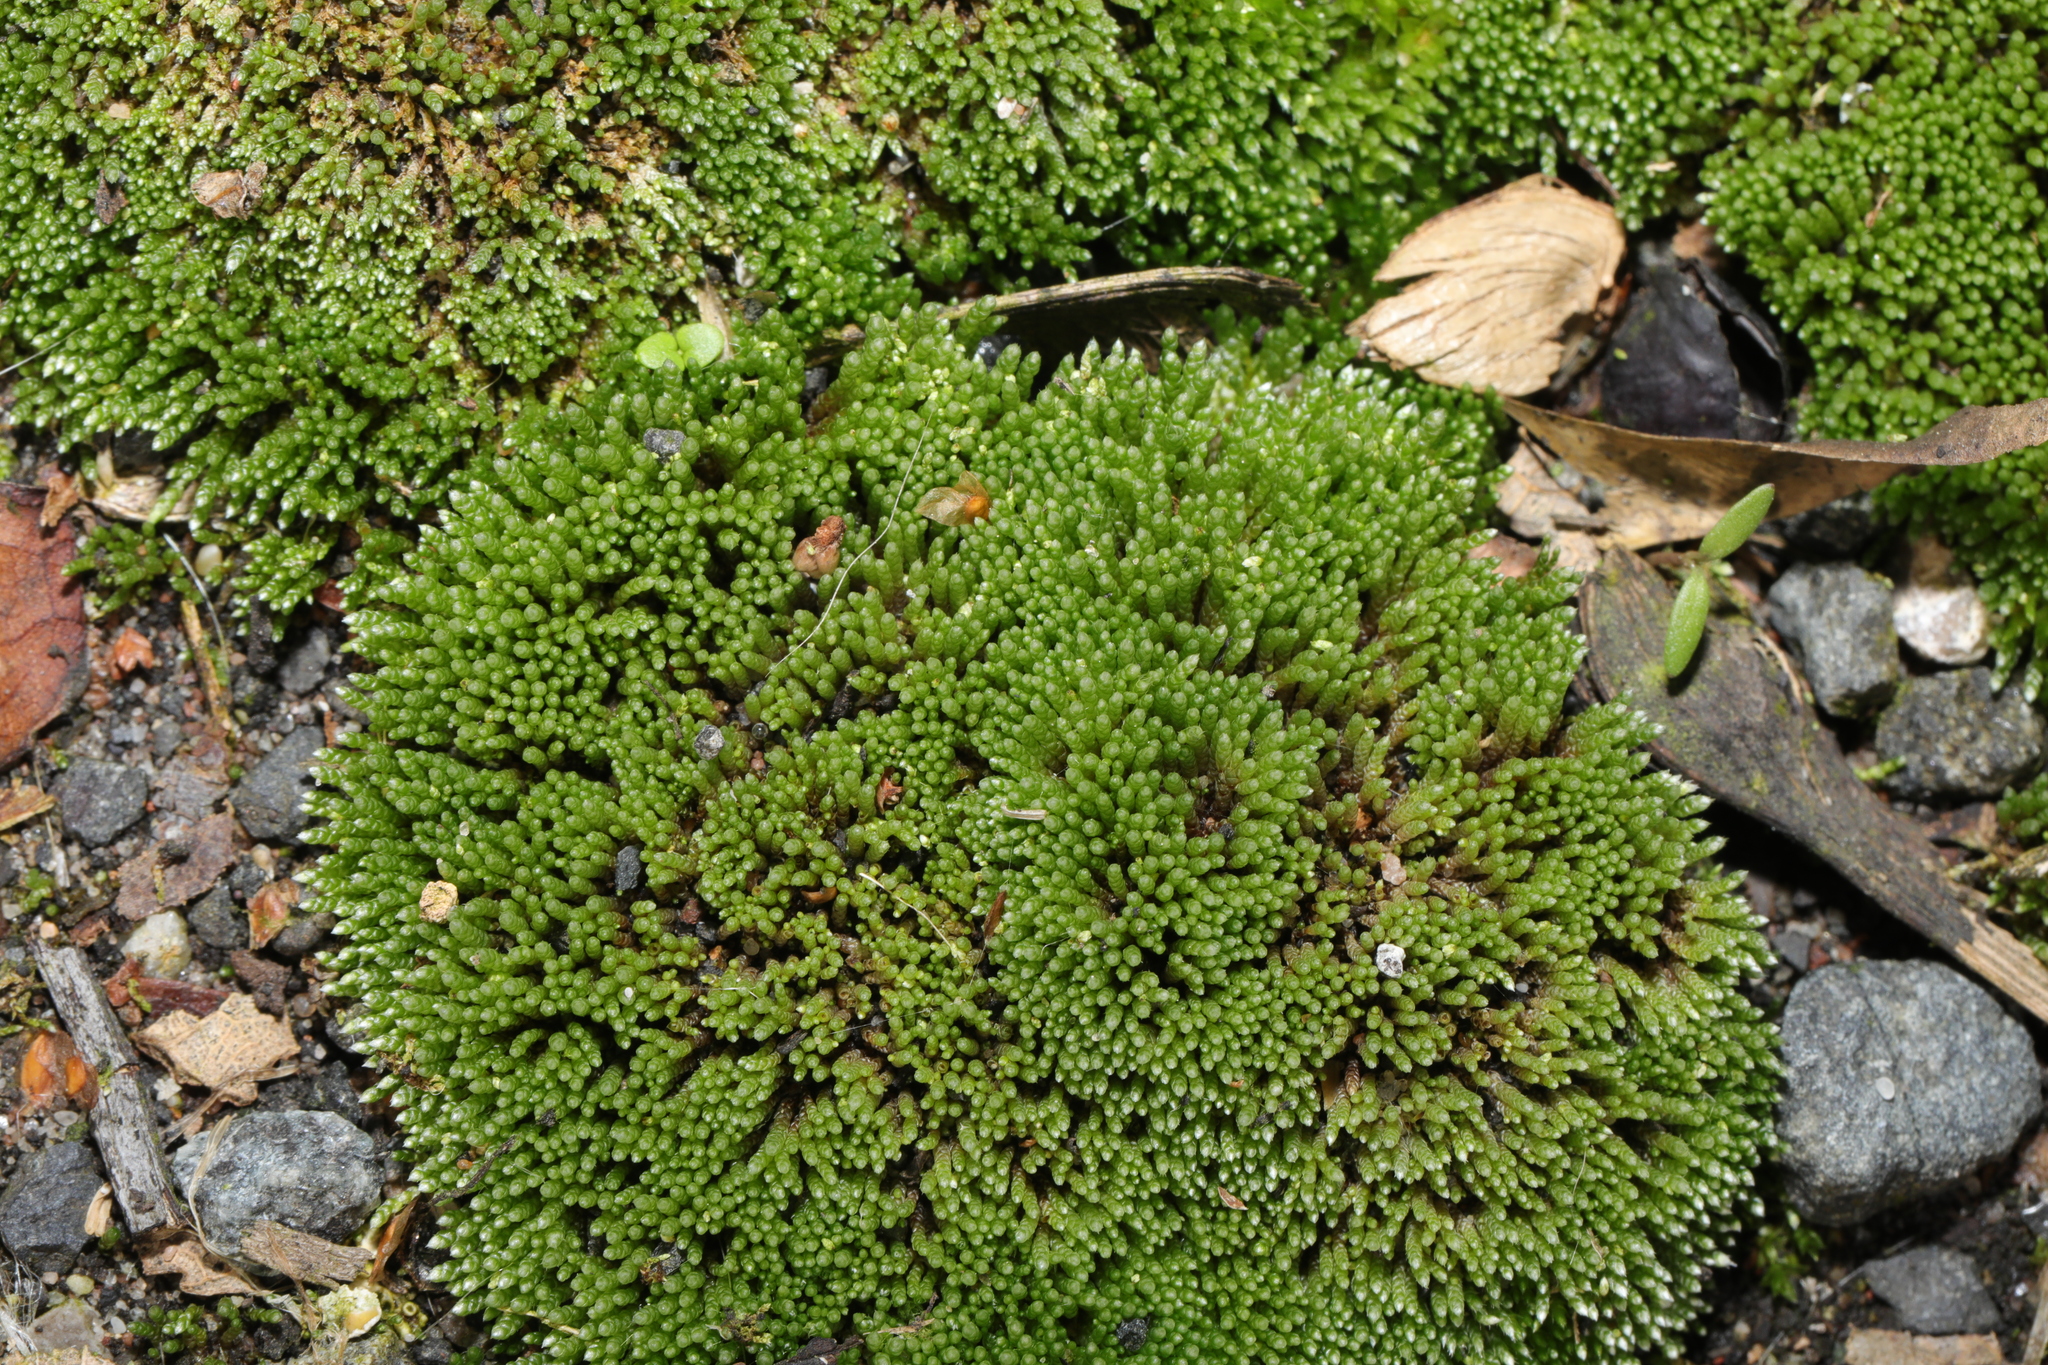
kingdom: Plantae
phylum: Bryophyta
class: Bryopsida
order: Bryales
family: Bryaceae
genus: Bryum
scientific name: Bryum argenteum
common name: Silver-moss
